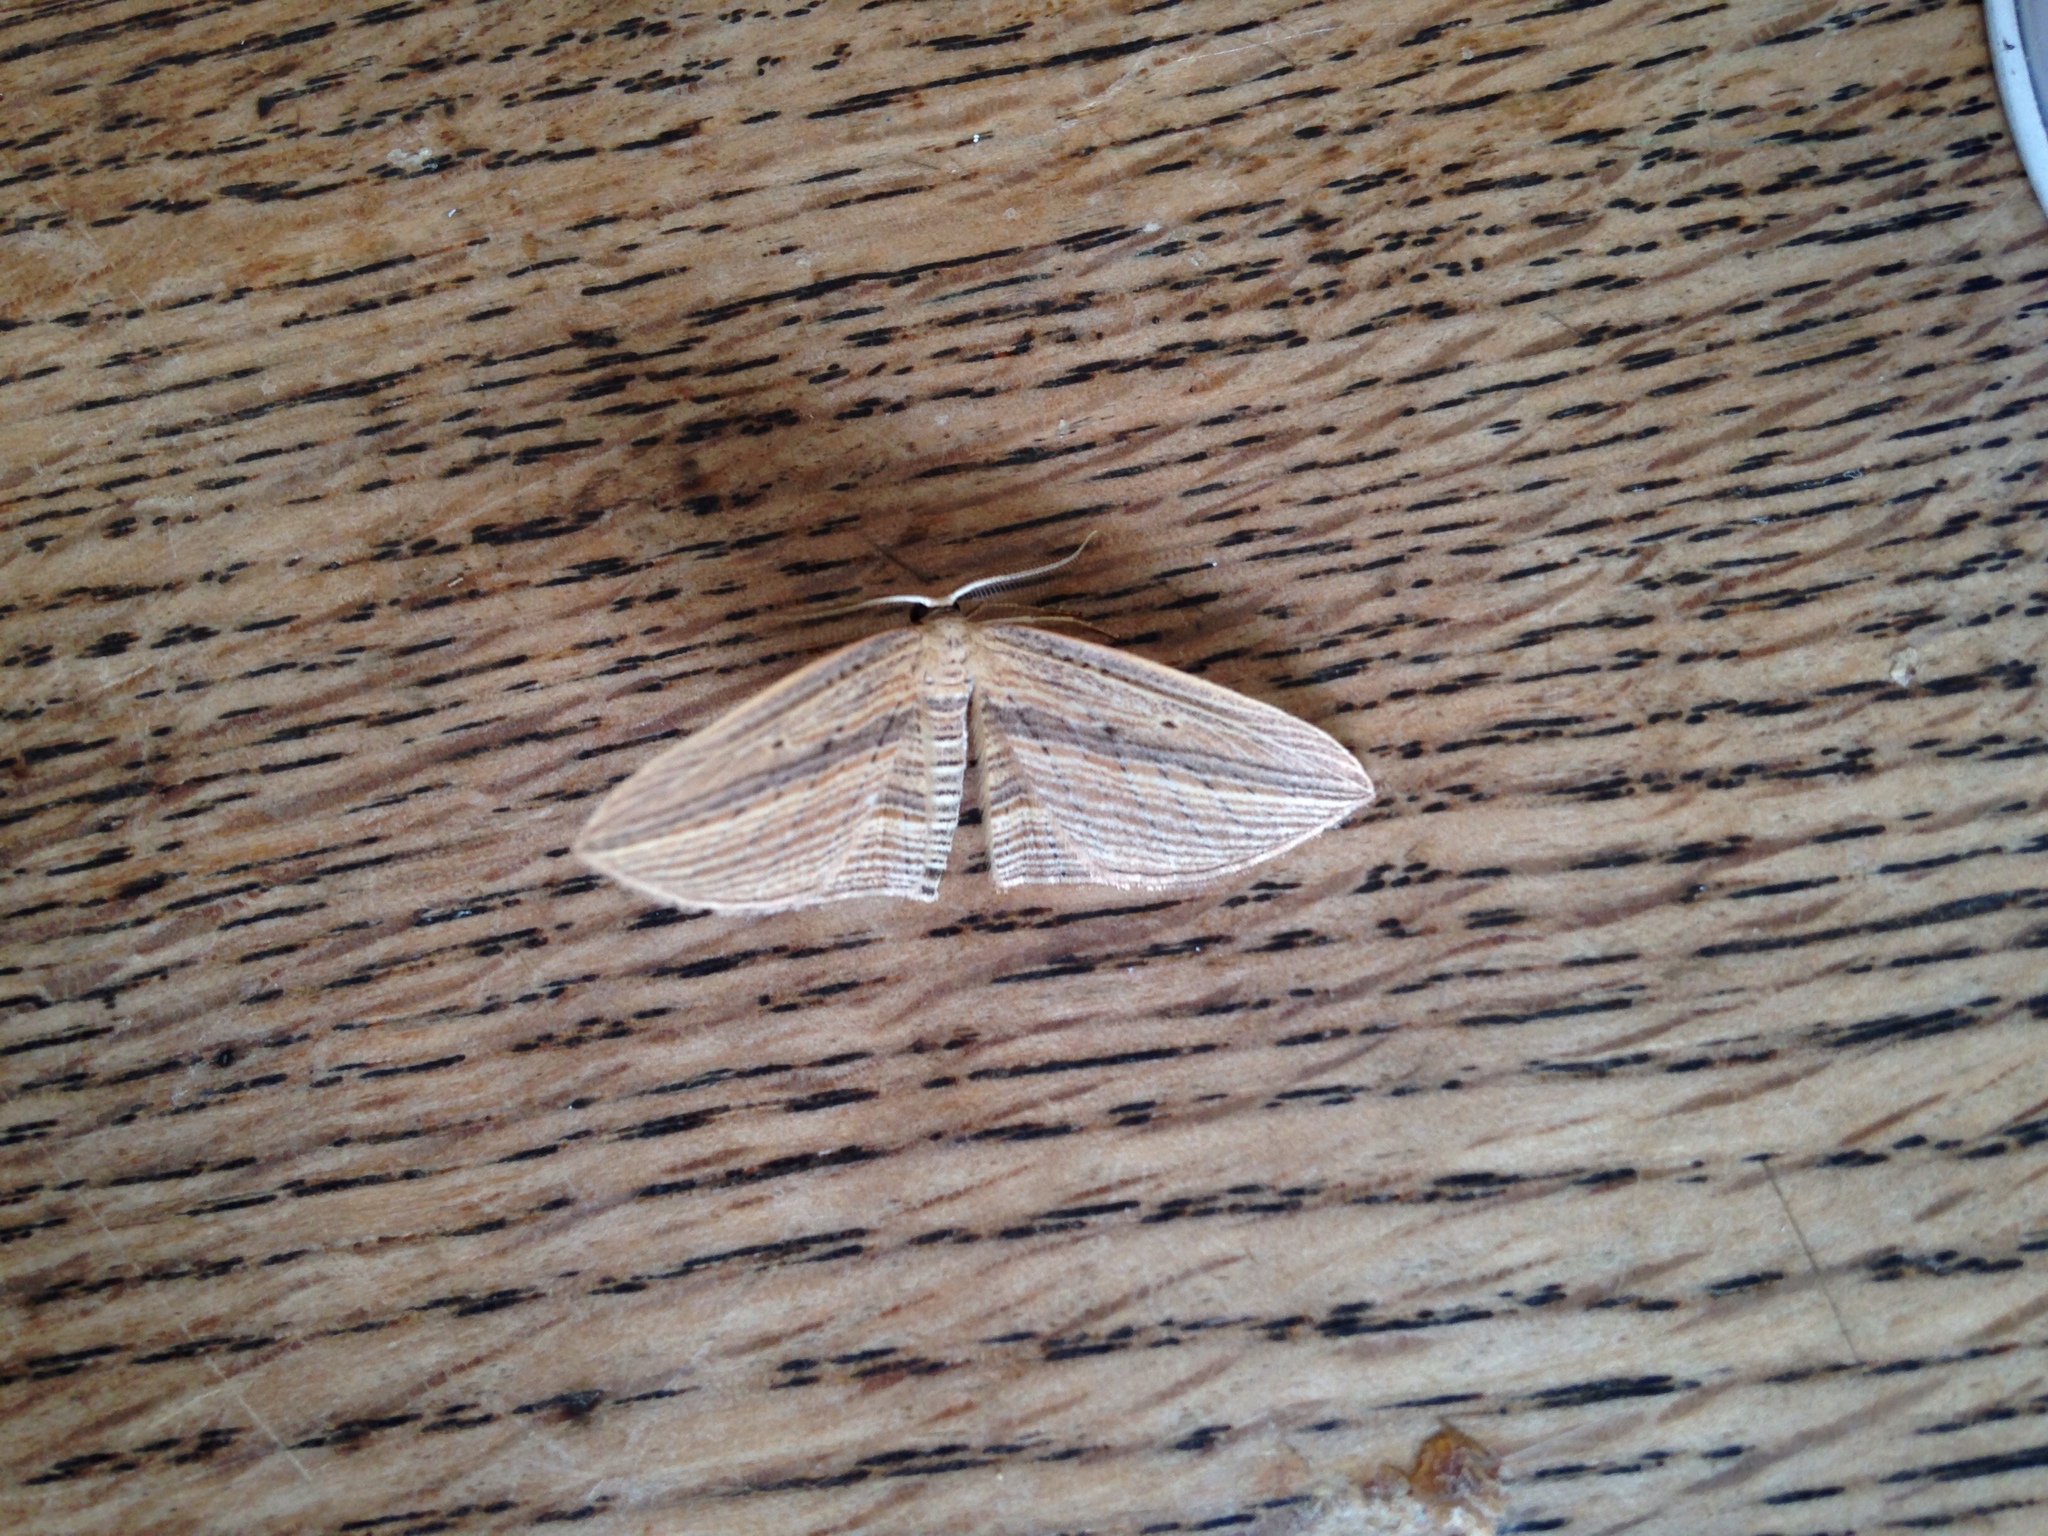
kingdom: Animalia
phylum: Arthropoda
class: Insecta
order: Lepidoptera
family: Geometridae
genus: Epiphryne
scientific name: Epiphryne verriculata
